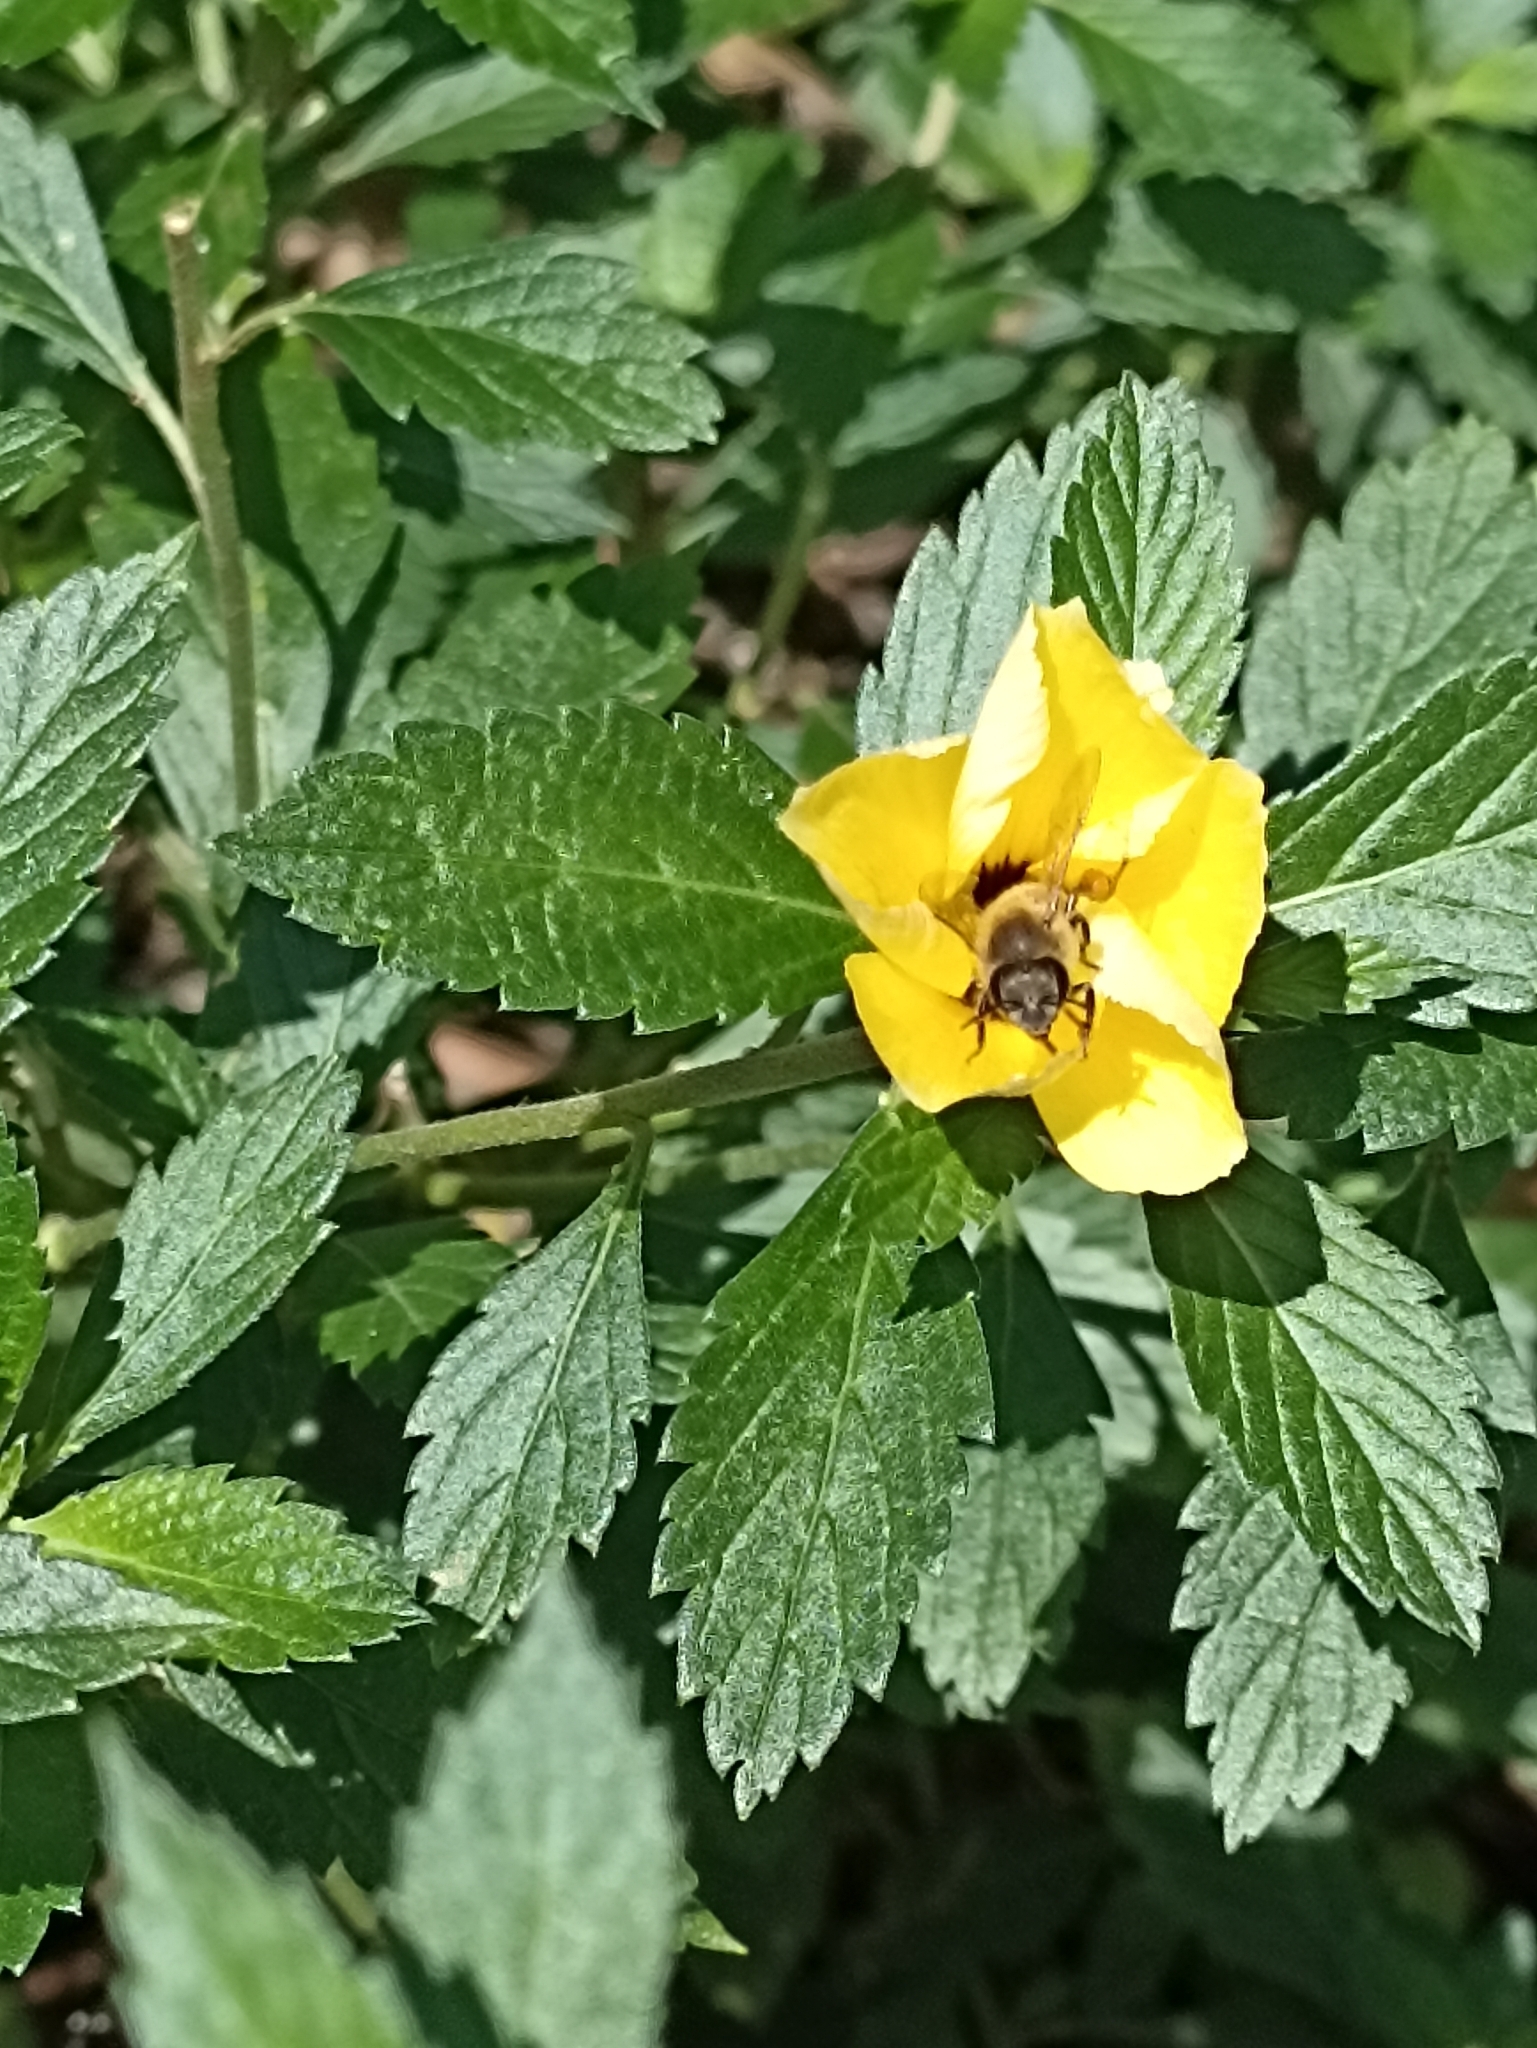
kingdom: Animalia
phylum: Arthropoda
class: Insecta
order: Hymenoptera
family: Apidae
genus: Apis
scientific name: Apis mellifera
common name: Honey bee
